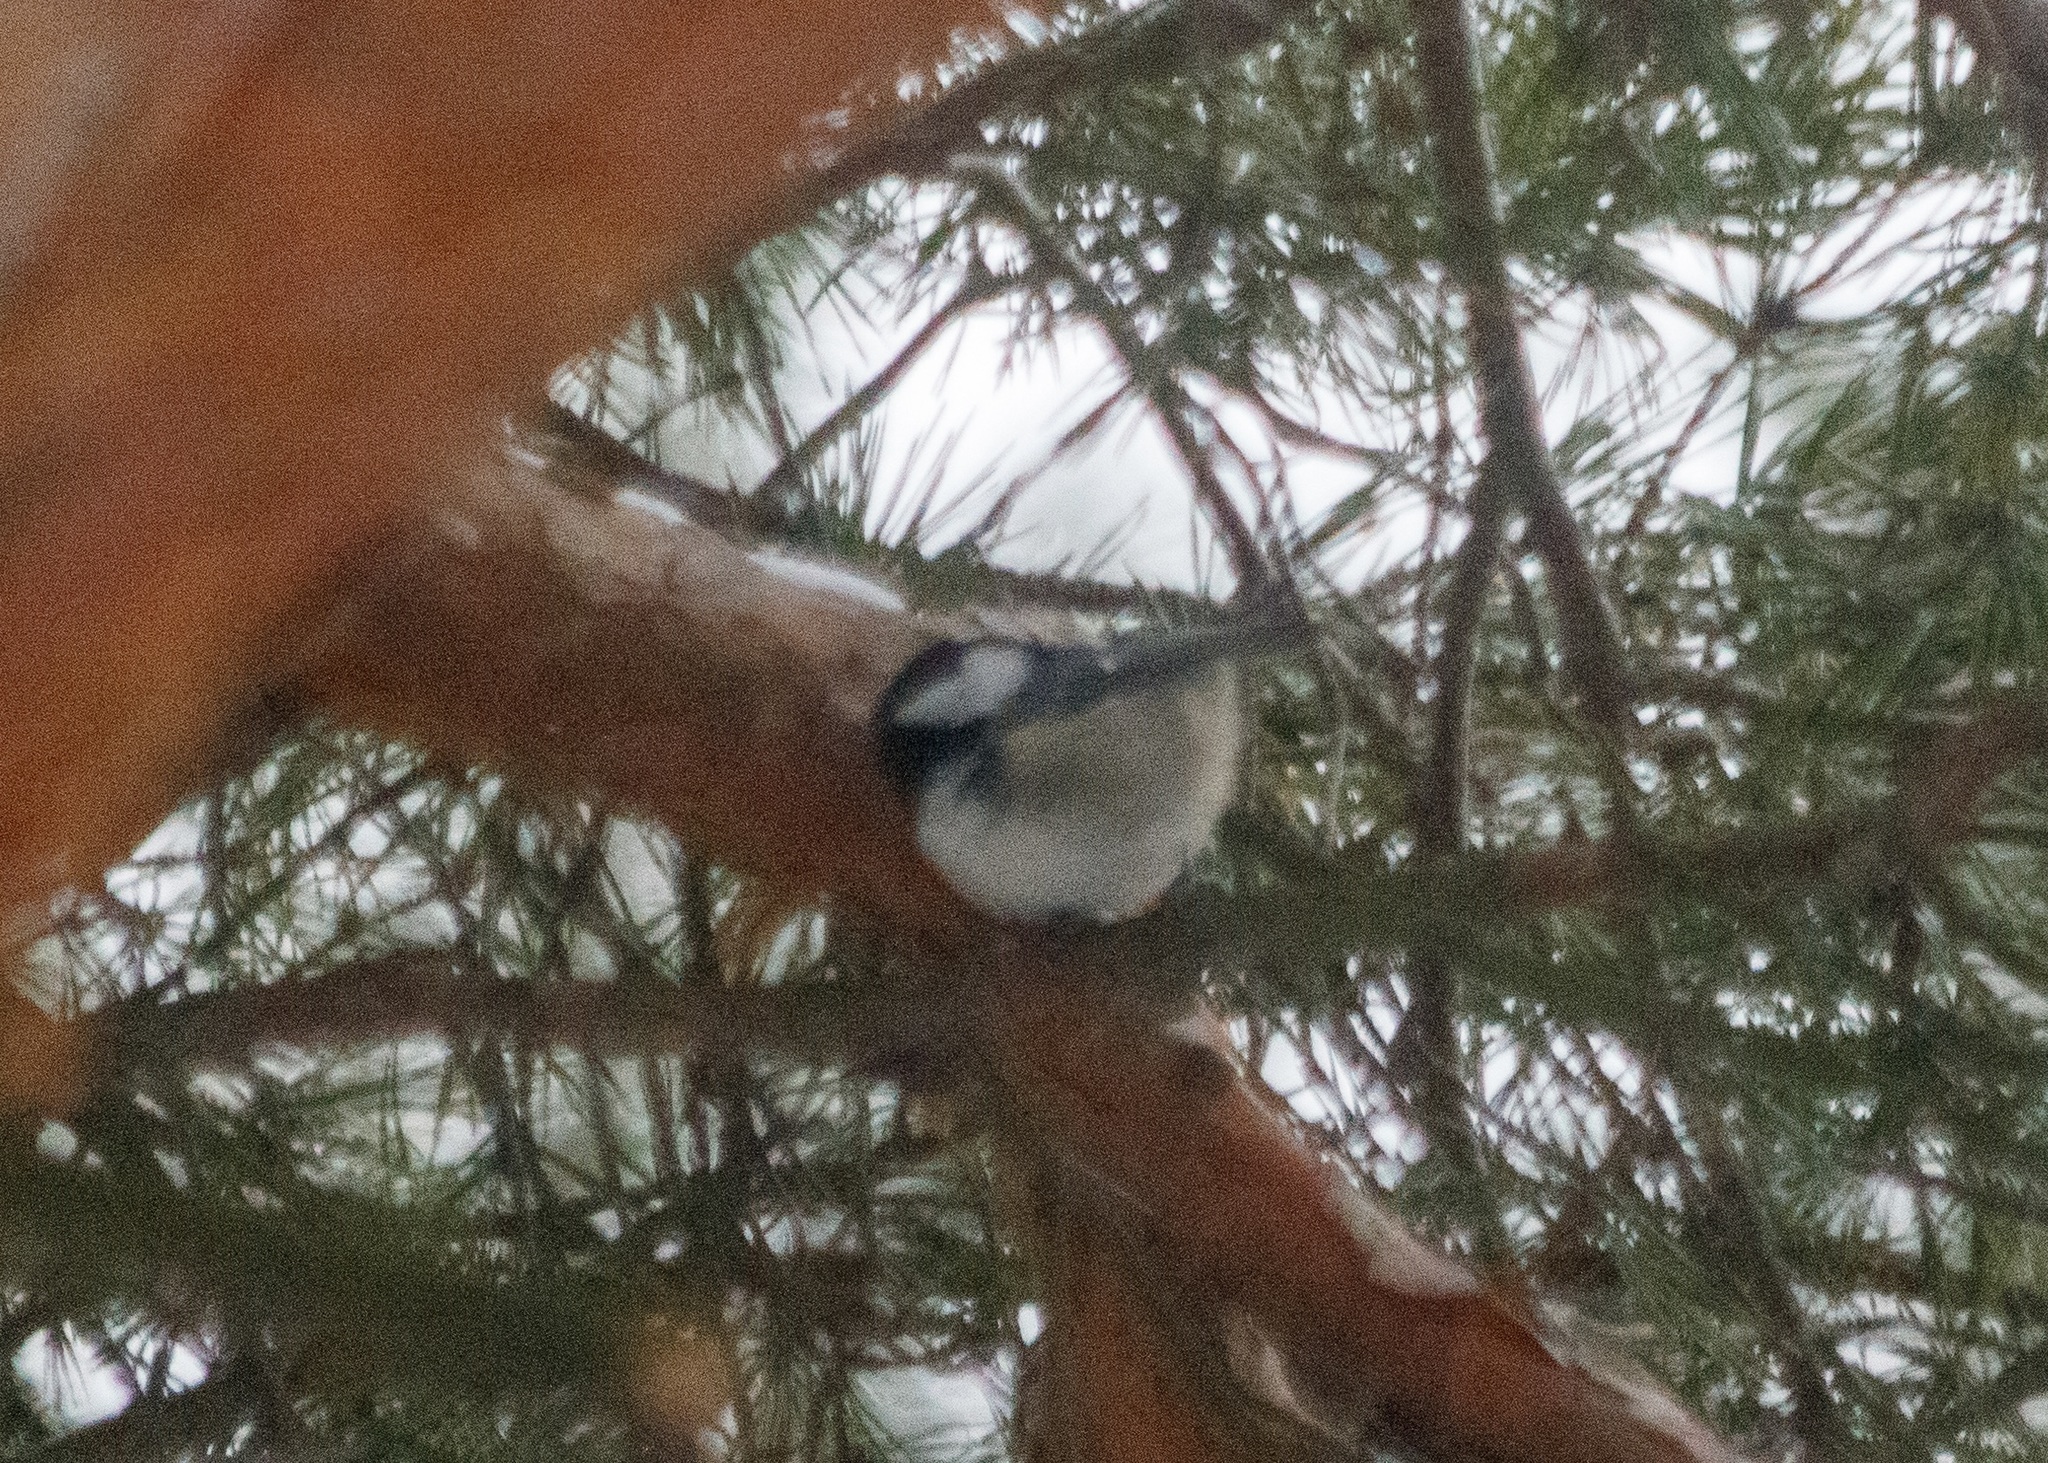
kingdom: Animalia
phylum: Chordata
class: Aves
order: Passeriformes
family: Paridae
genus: Periparus
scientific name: Periparus ater
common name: Coal tit
